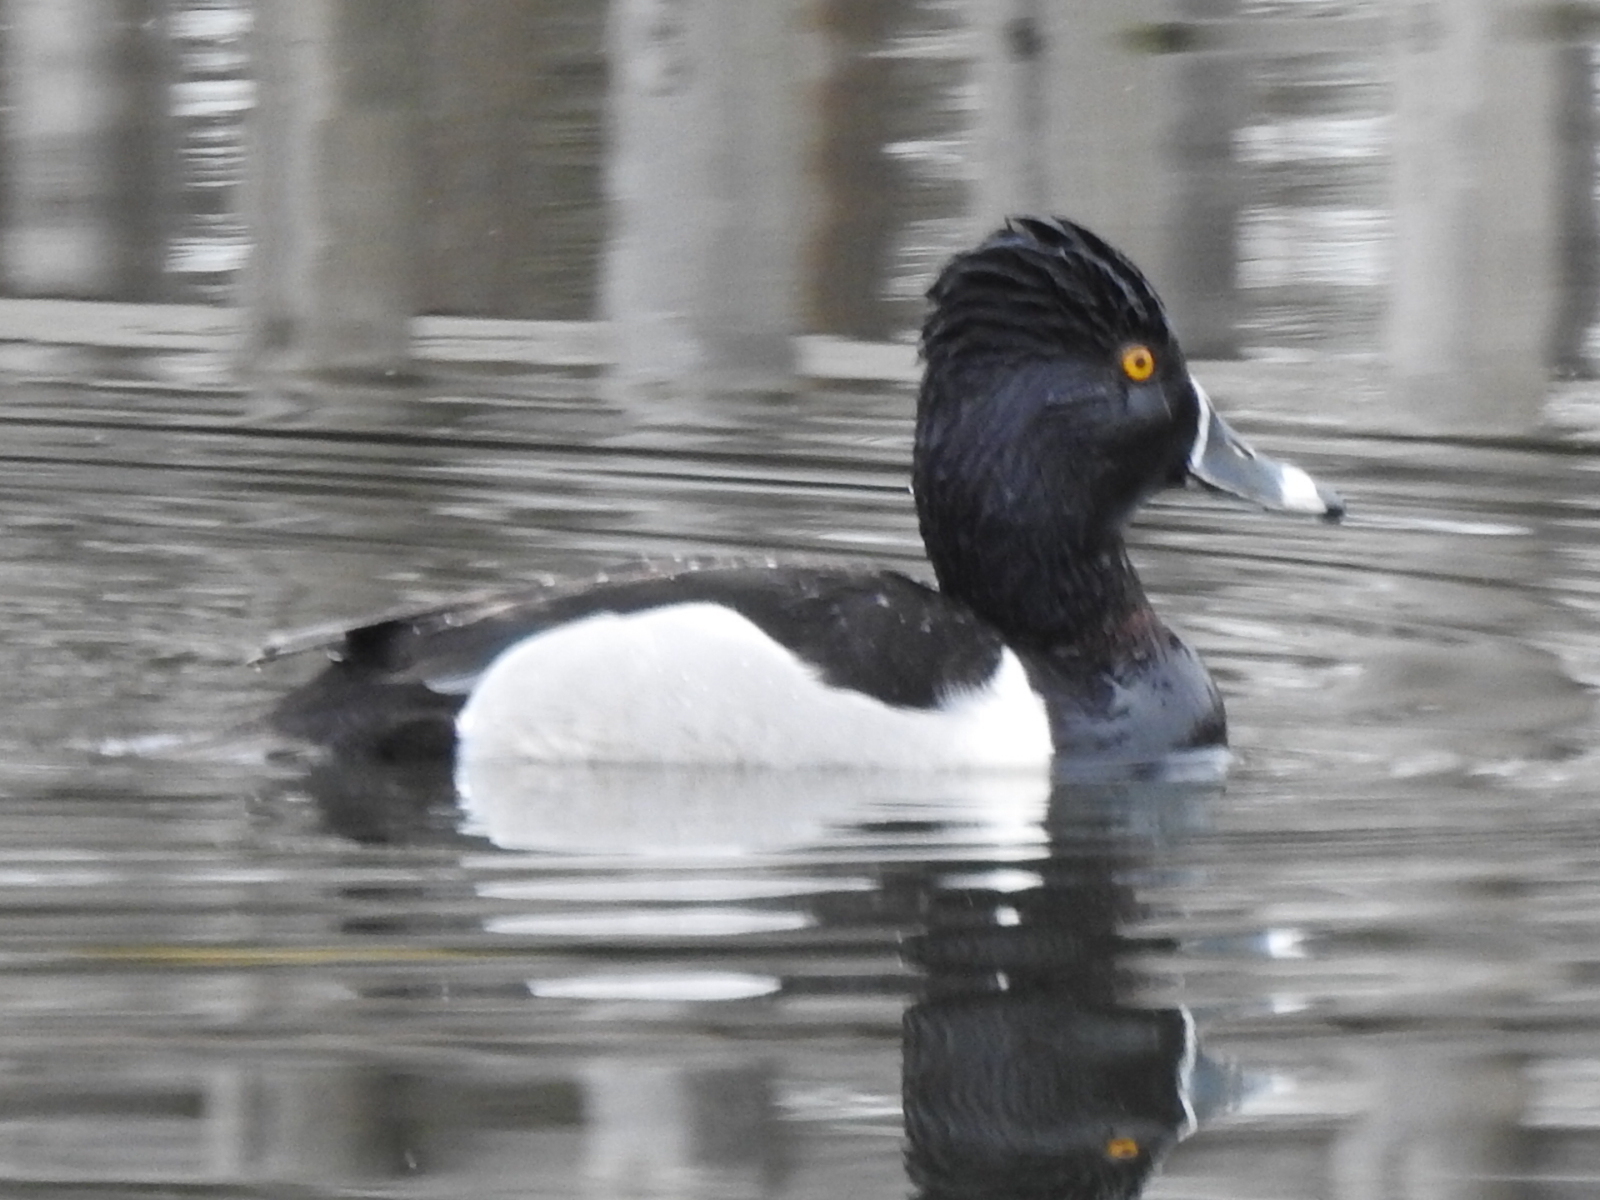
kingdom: Animalia
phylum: Chordata
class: Aves
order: Anseriformes
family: Anatidae
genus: Aythya
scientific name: Aythya collaris
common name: Ring-necked duck
